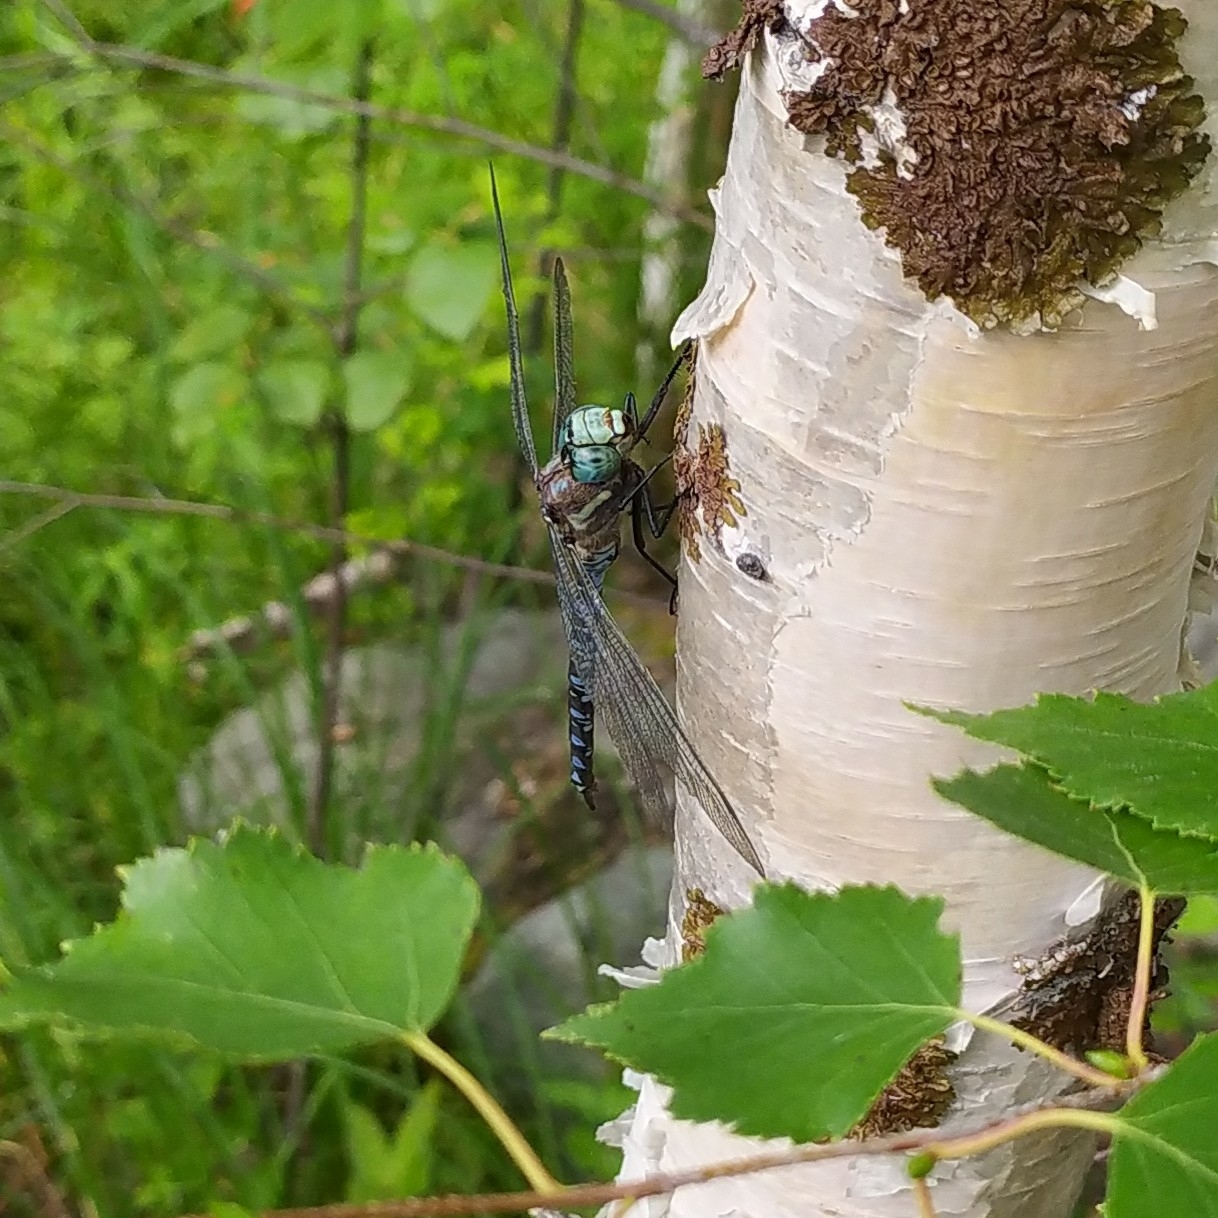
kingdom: Animalia
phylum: Arthropoda
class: Insecta
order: Odonata
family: Aeshnidae
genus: Aeshna
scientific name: Aeshna crenata
